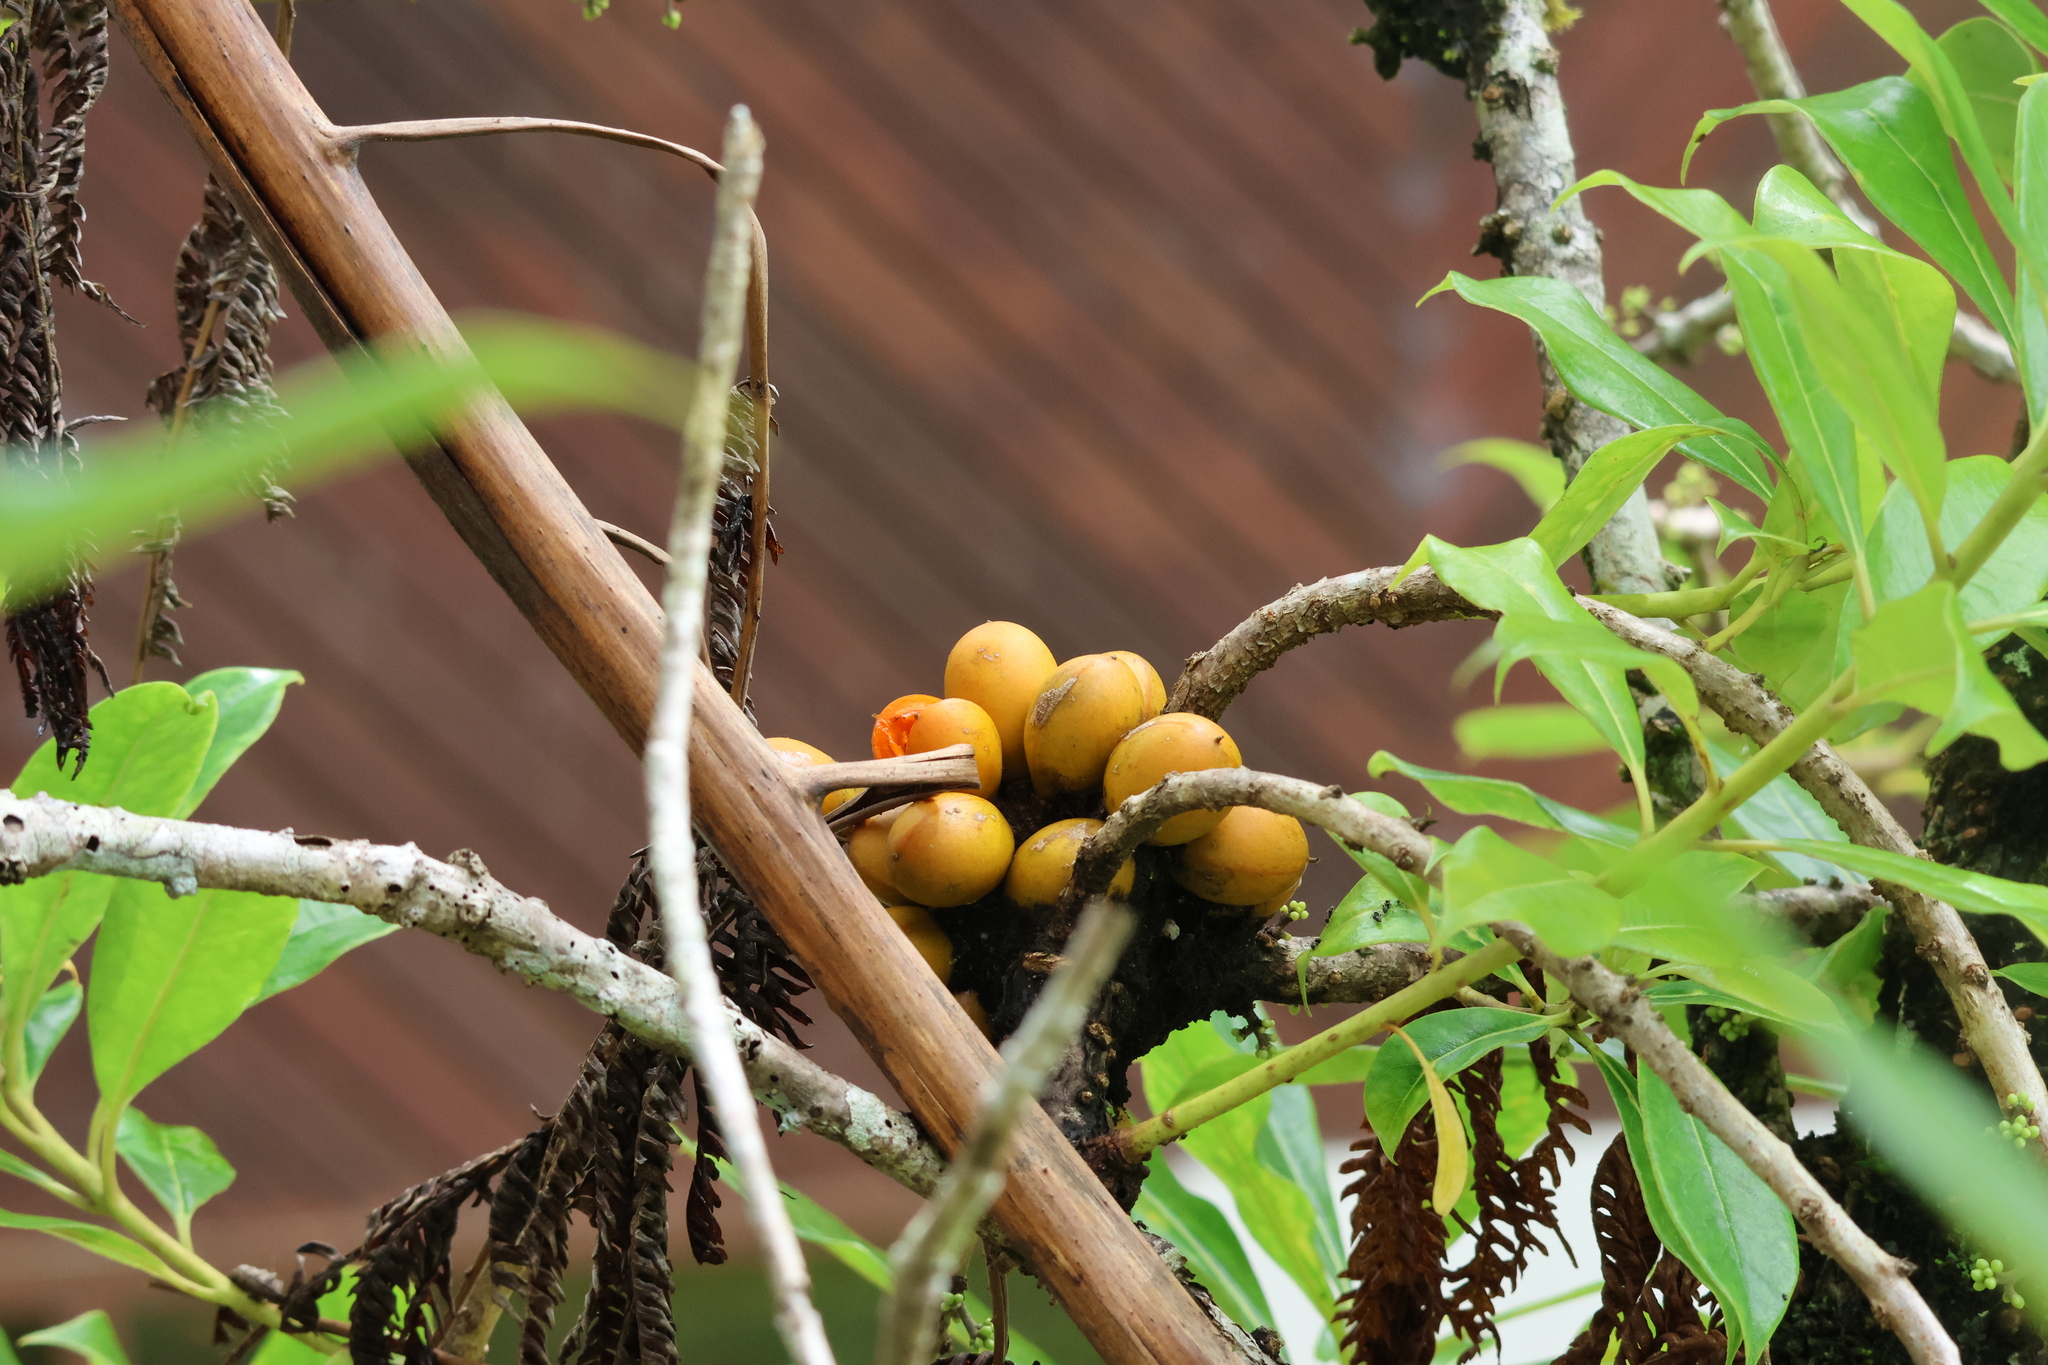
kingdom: Plantae
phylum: Tracheophyta
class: Magnoliopsida
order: Apiales
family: Pittosporaceae
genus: Pittosporum
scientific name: Pittosporum resiniferum
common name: Petroleum-nut
